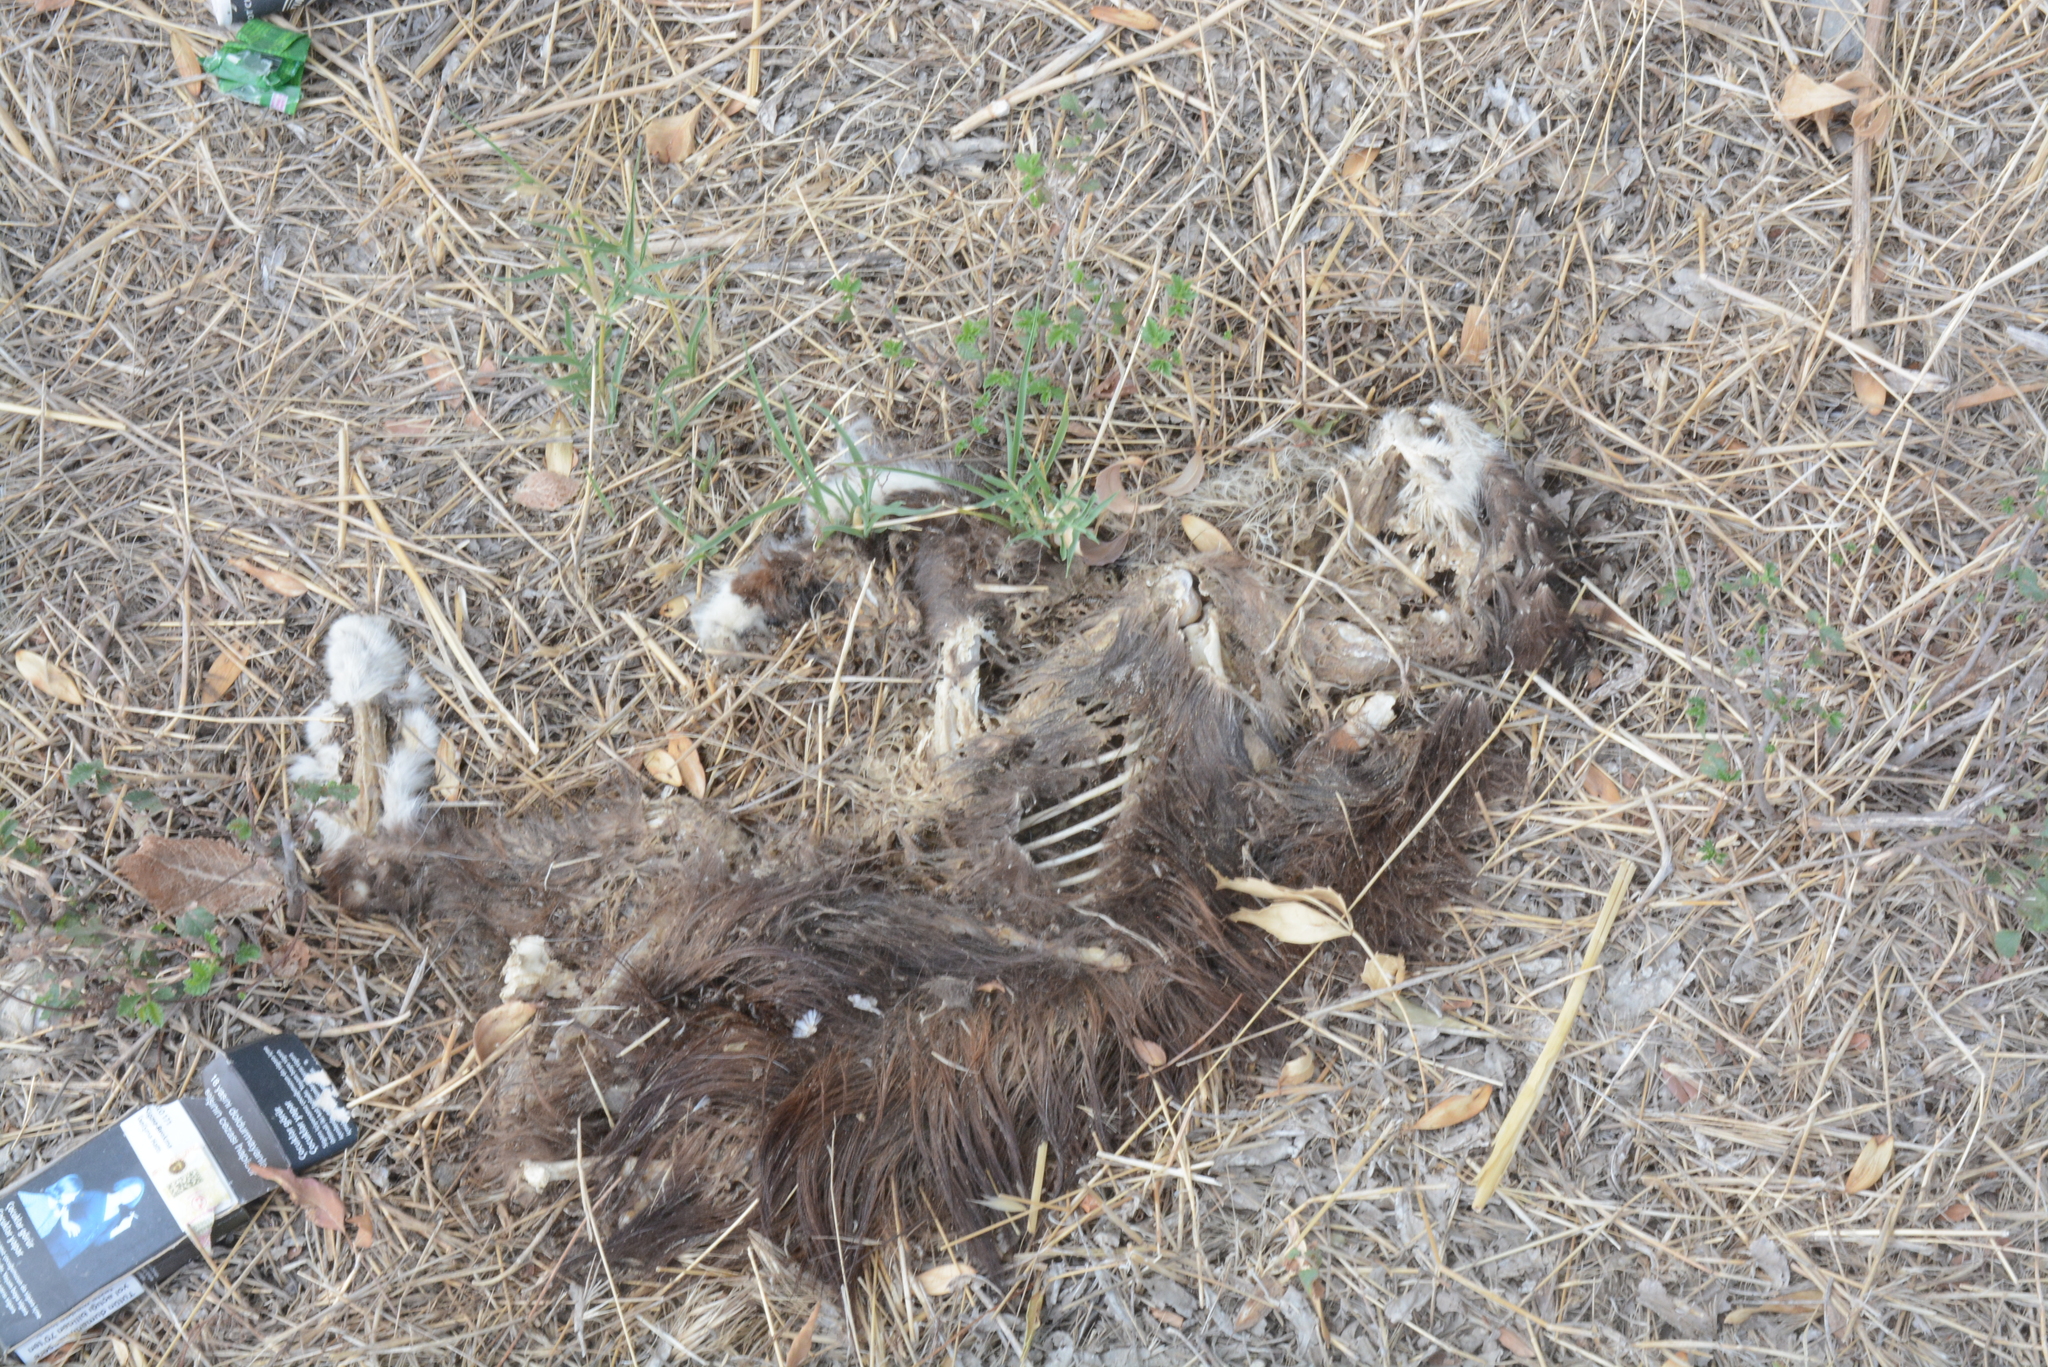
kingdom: Animalia
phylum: Chordata
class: Mammalia
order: Carnivora
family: Felidae
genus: Felis
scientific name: Felis catus
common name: Domestic cat
